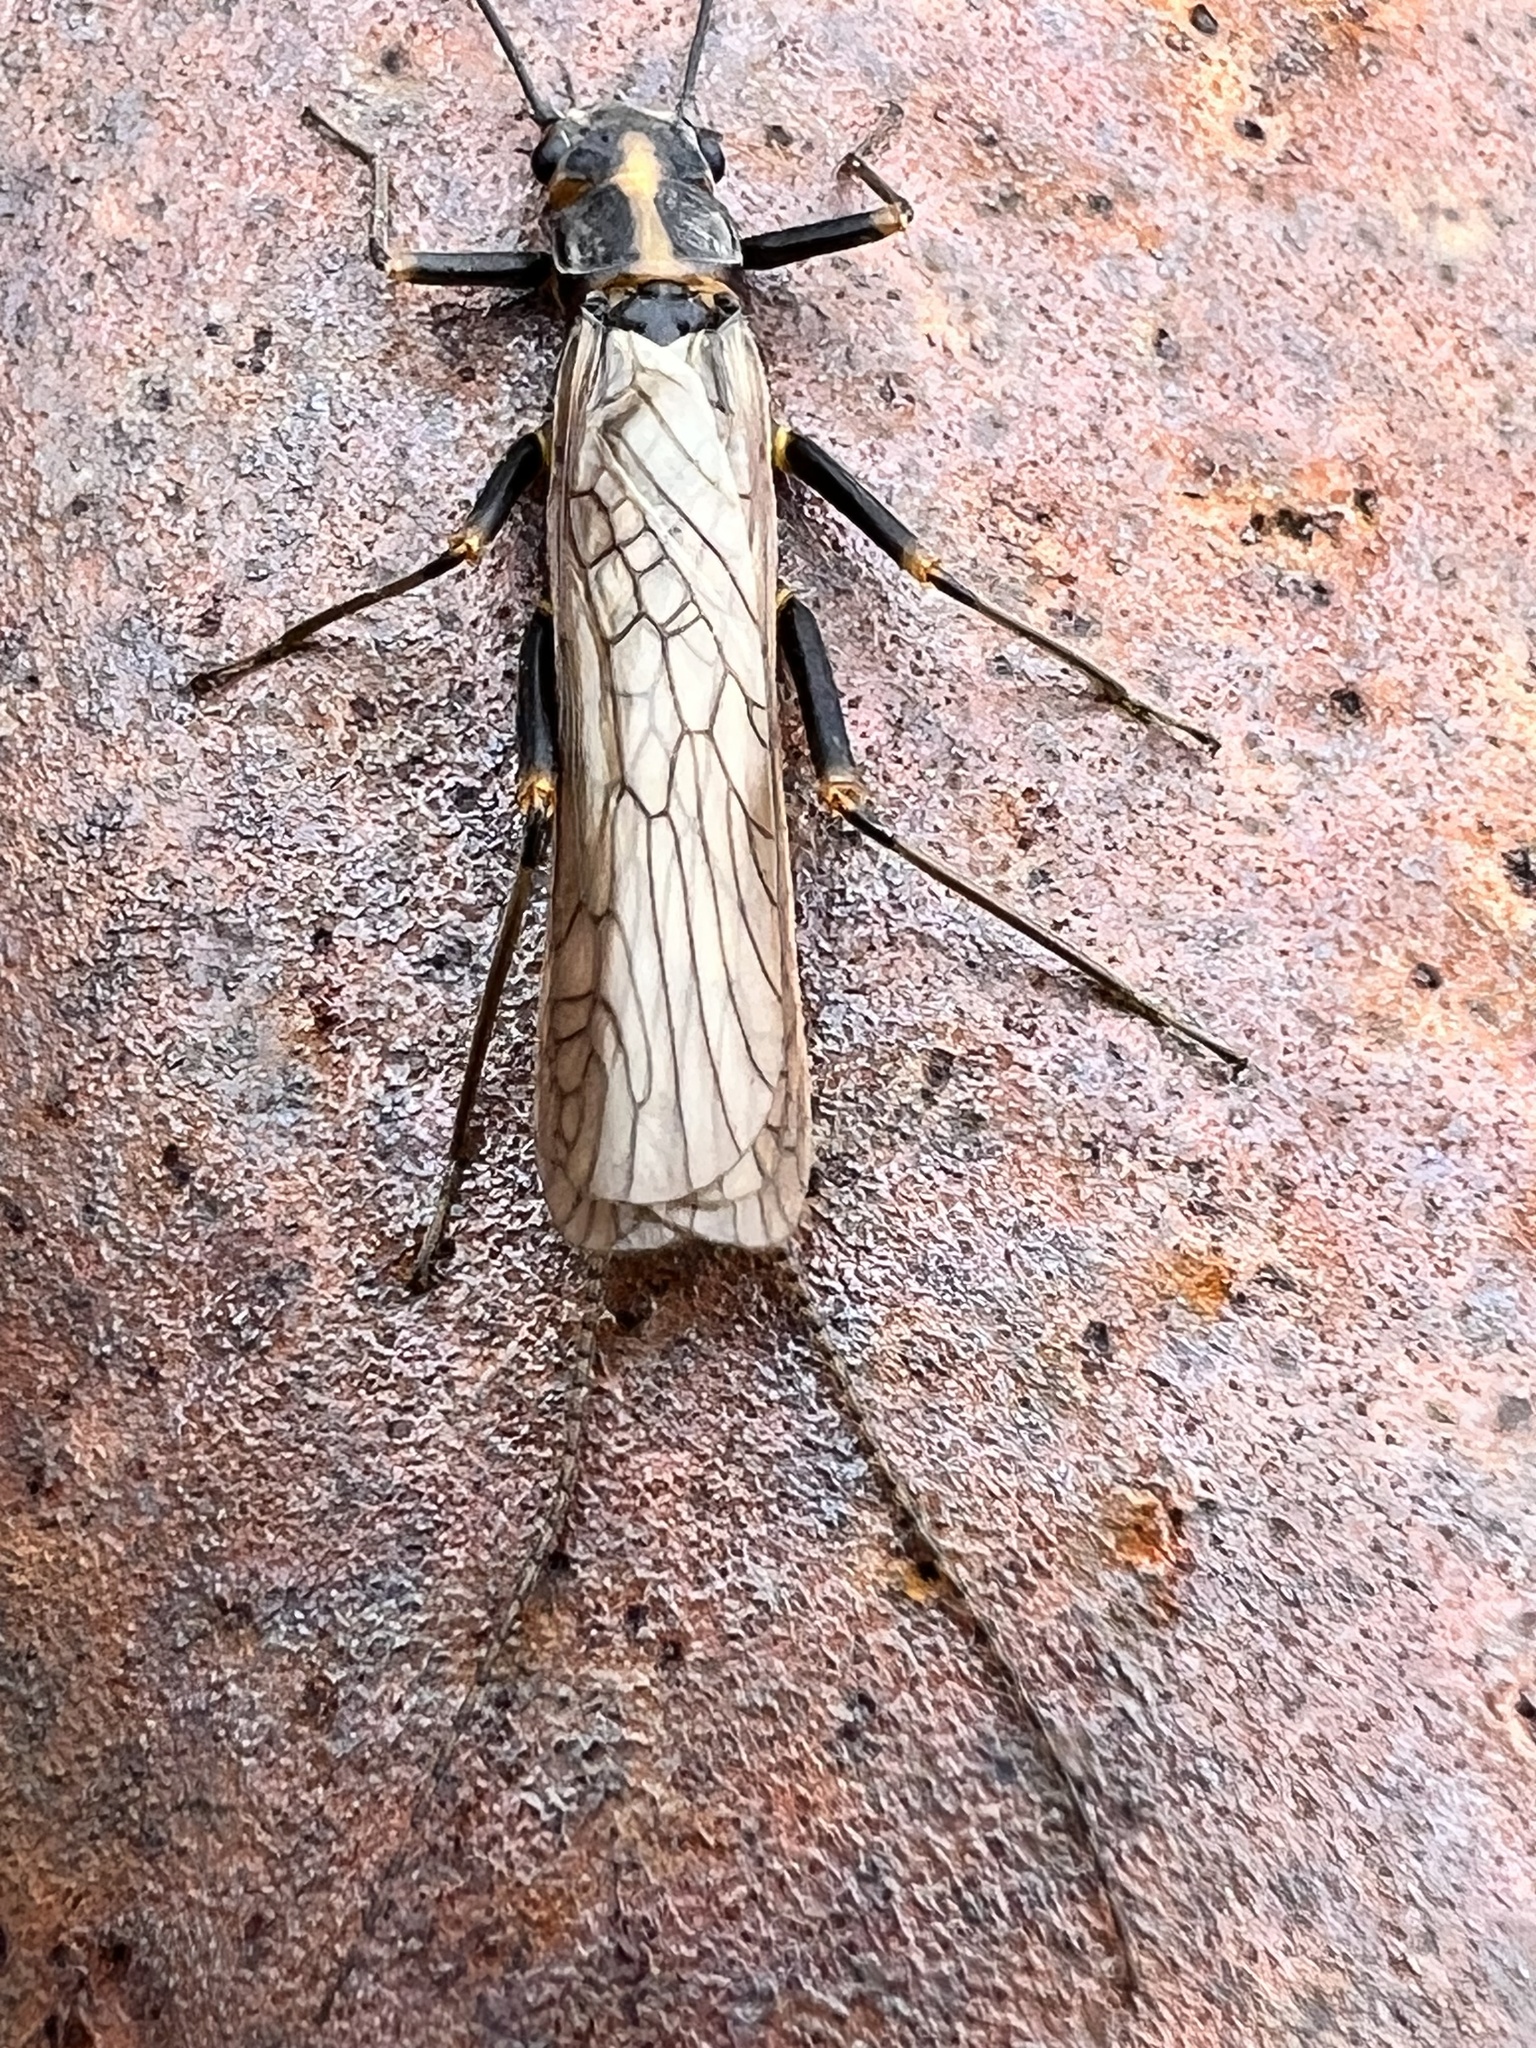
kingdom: Animalia
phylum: Arthropoda
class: Insecta
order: Plecoptera
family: Perlodidae
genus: Skwala
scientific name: Skwala americana
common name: American springfly
